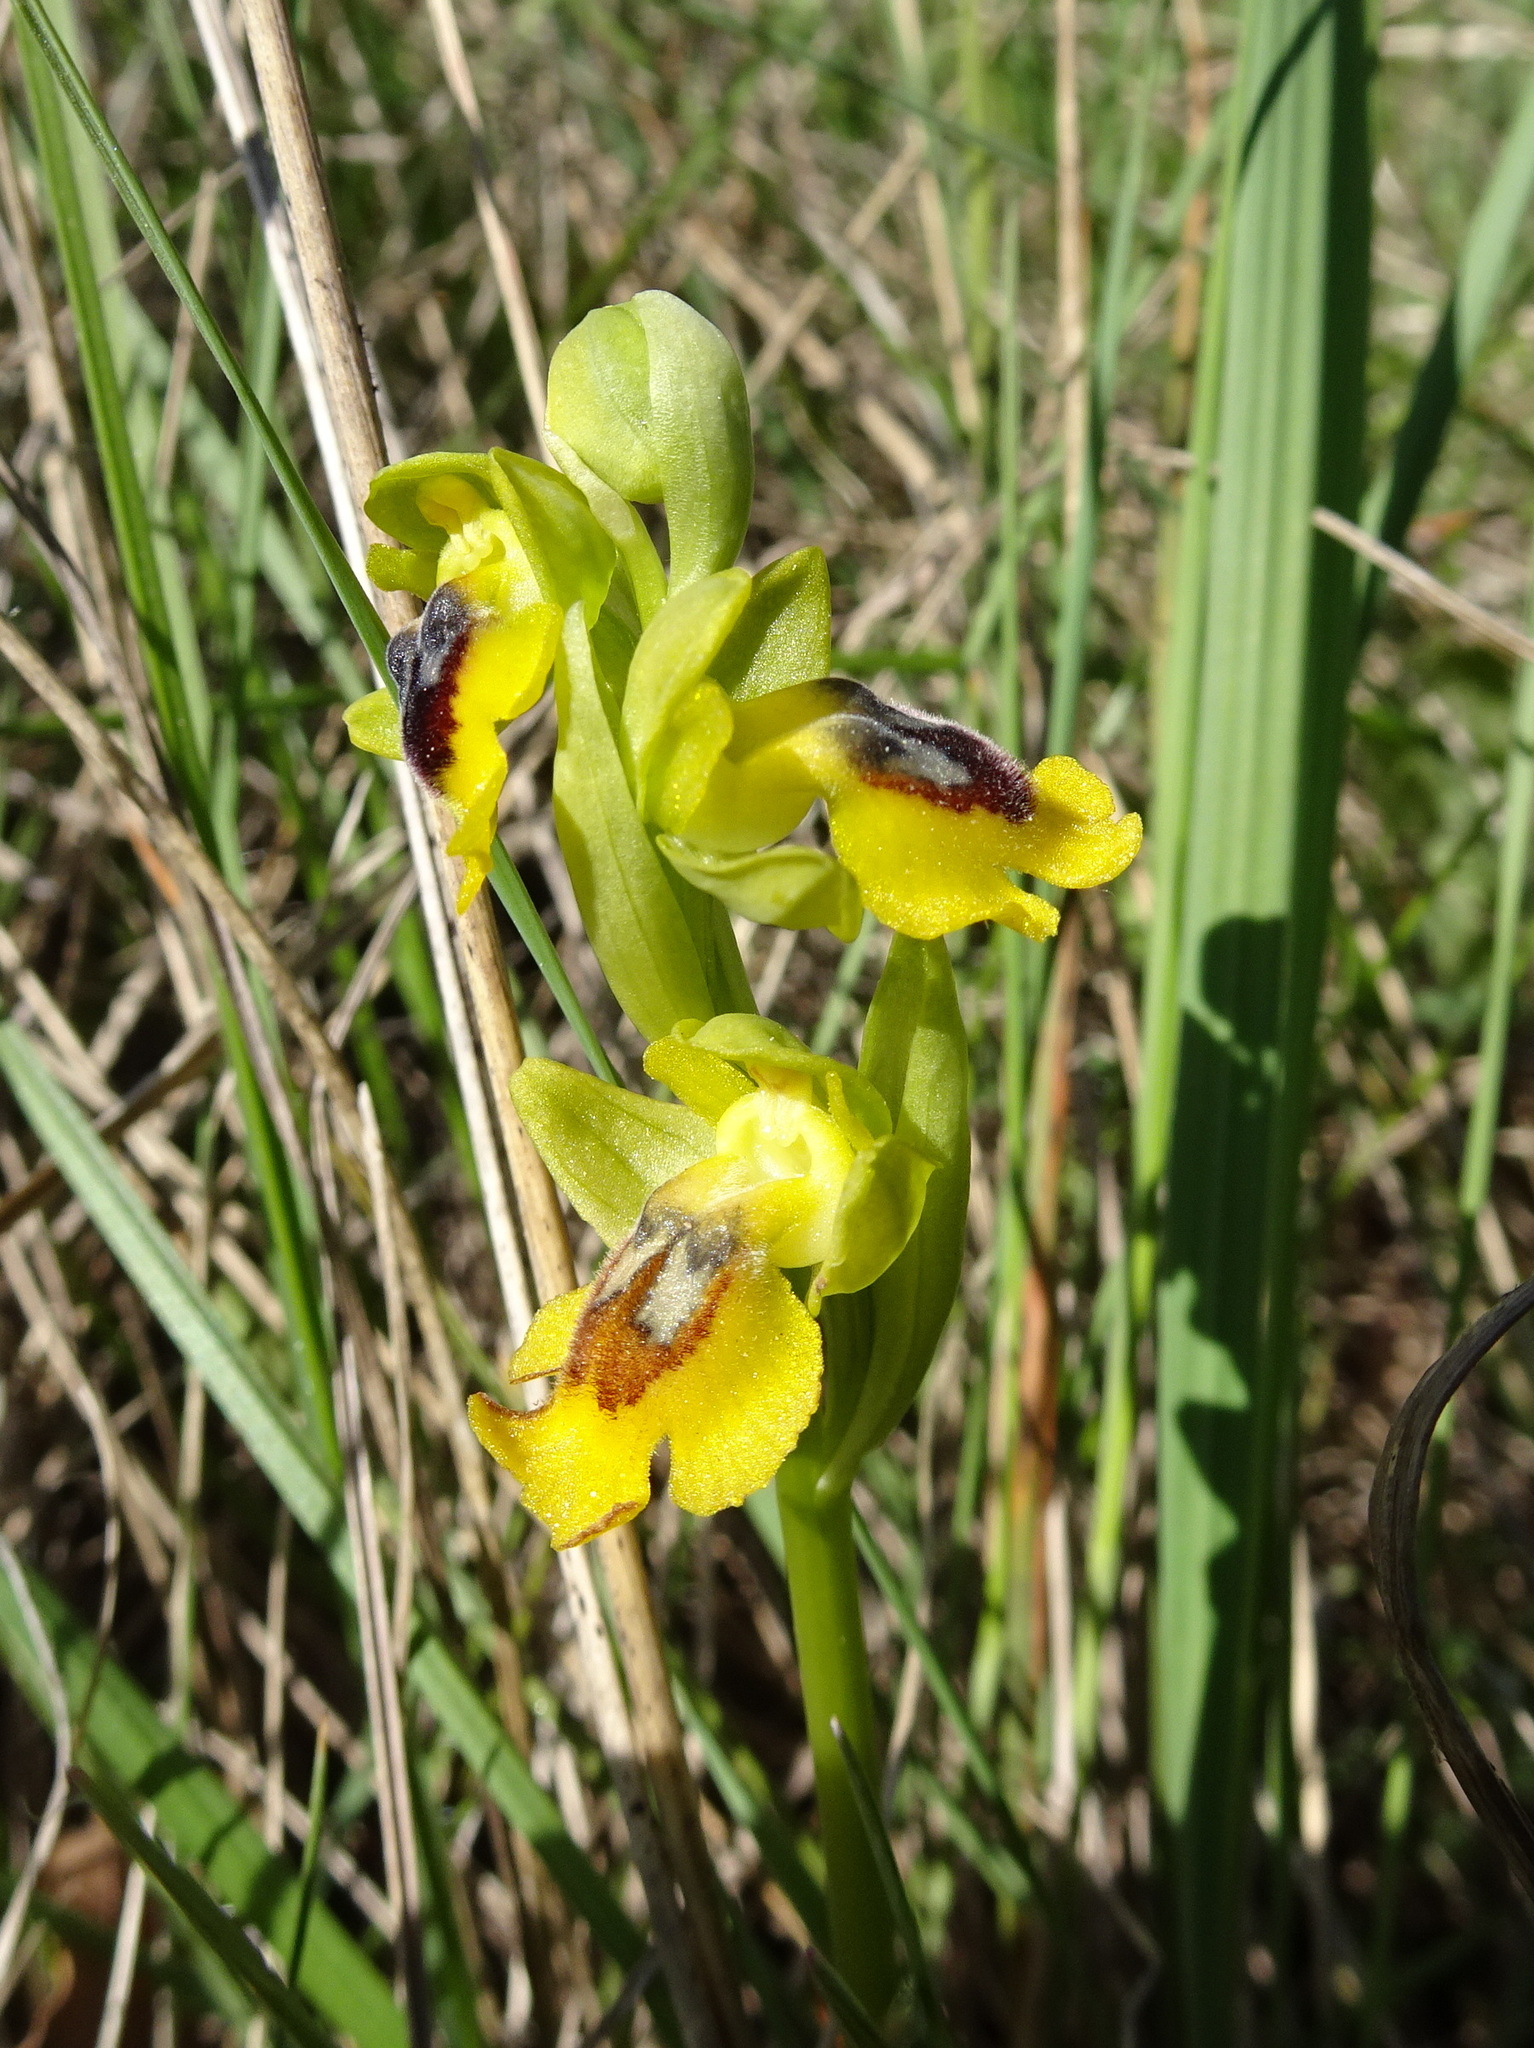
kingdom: Plantae
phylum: Tracheophyta
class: Liliopsida
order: Asparagales
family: Orchidaceae
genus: Ophrys
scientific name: Ophrys lutea
